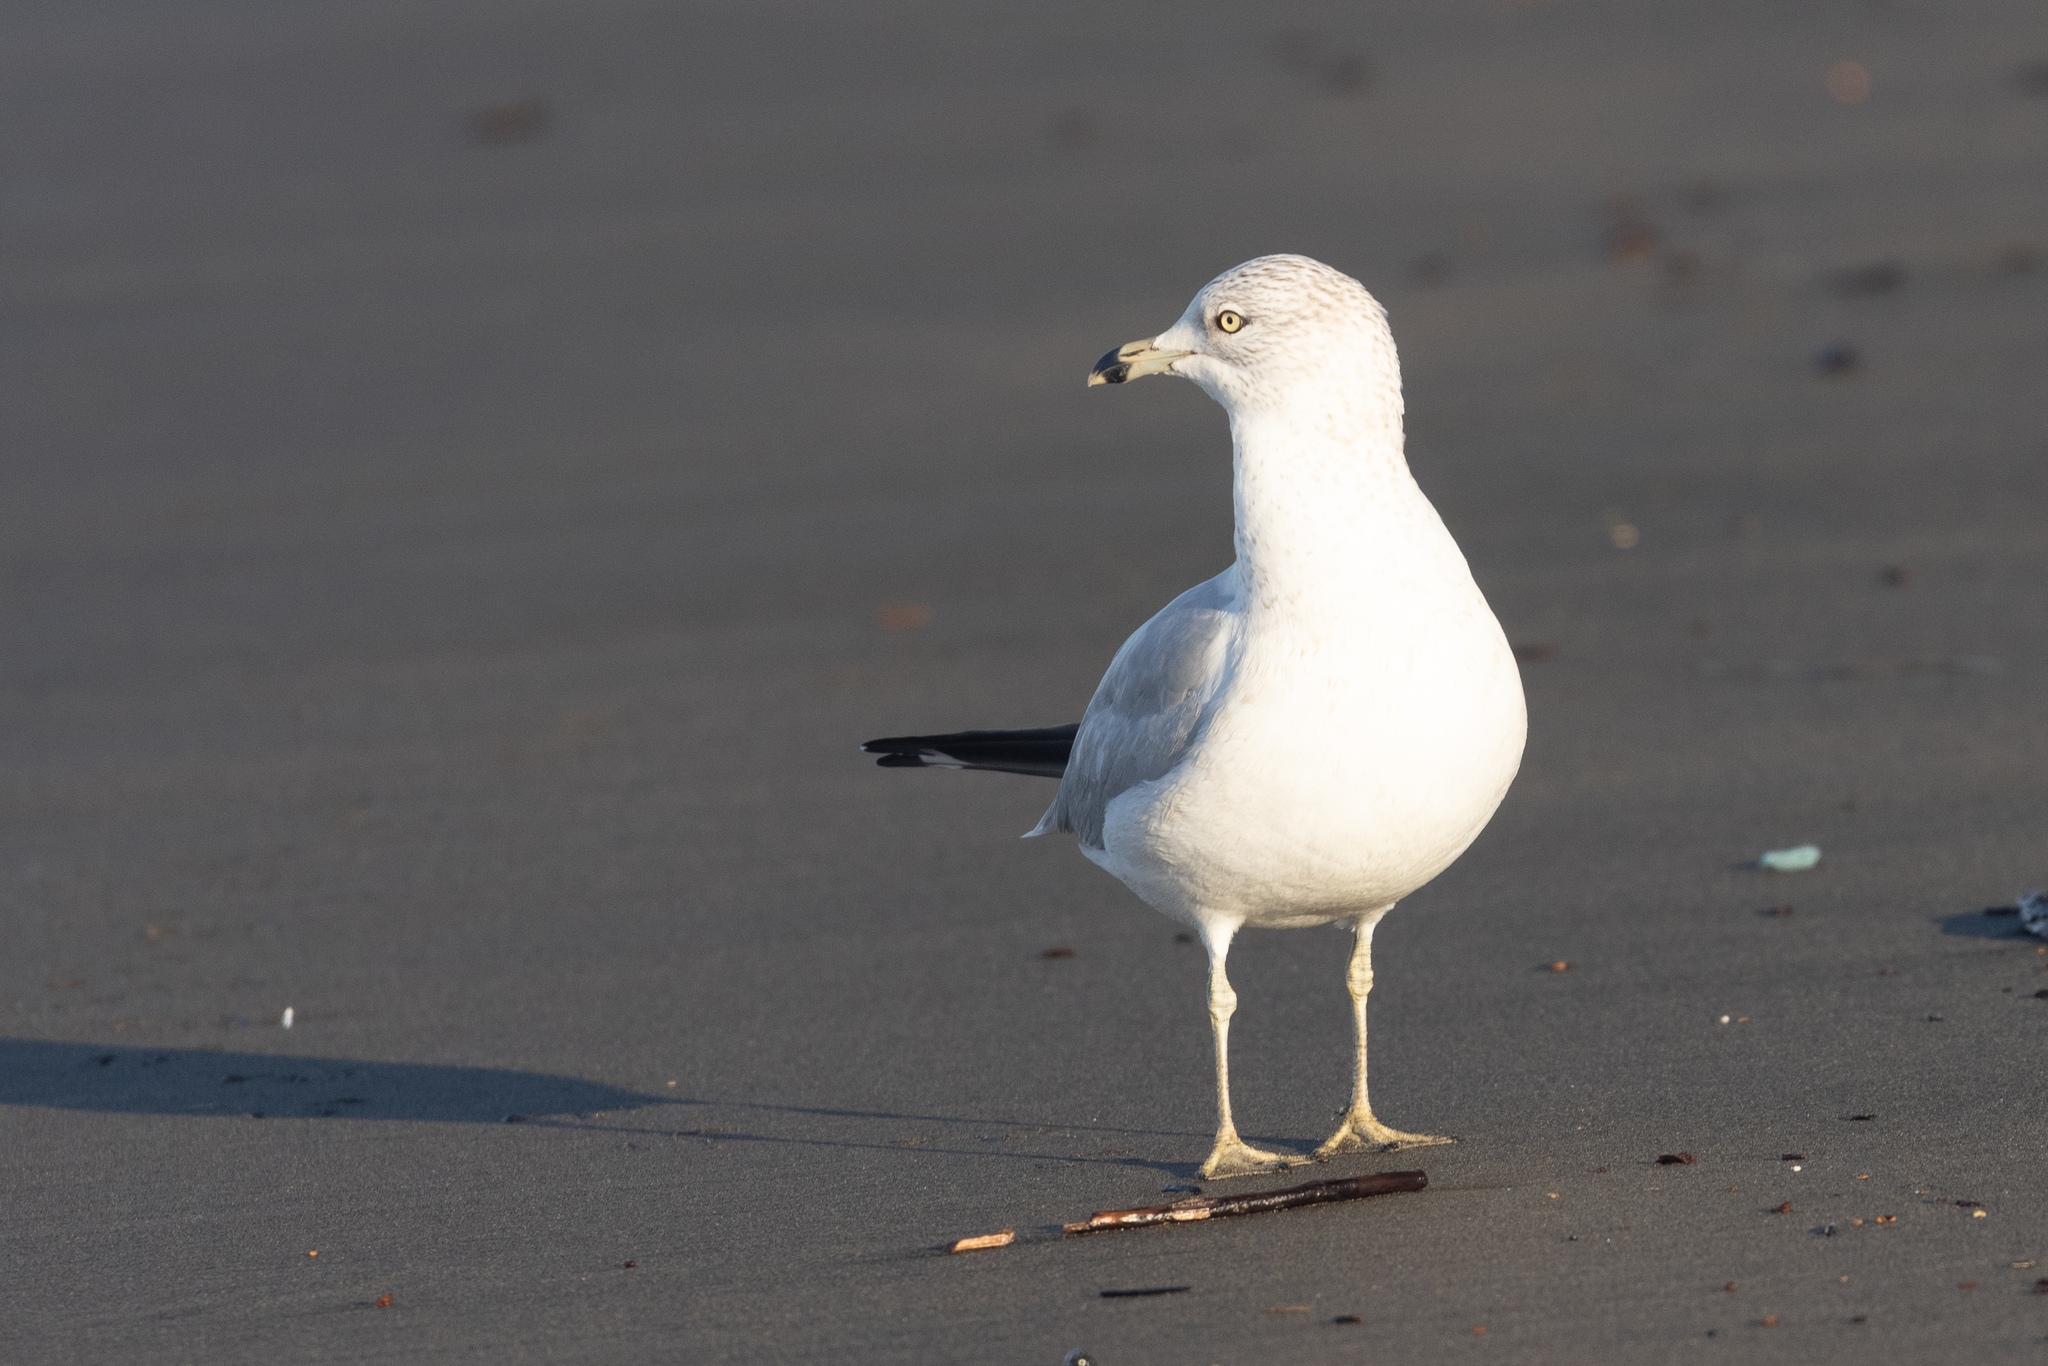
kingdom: Animalia
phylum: Chordata
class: Aves
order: Charadriiformes
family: Laridae
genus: Larus
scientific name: Larus delawarensis
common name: Ring-billed gull
